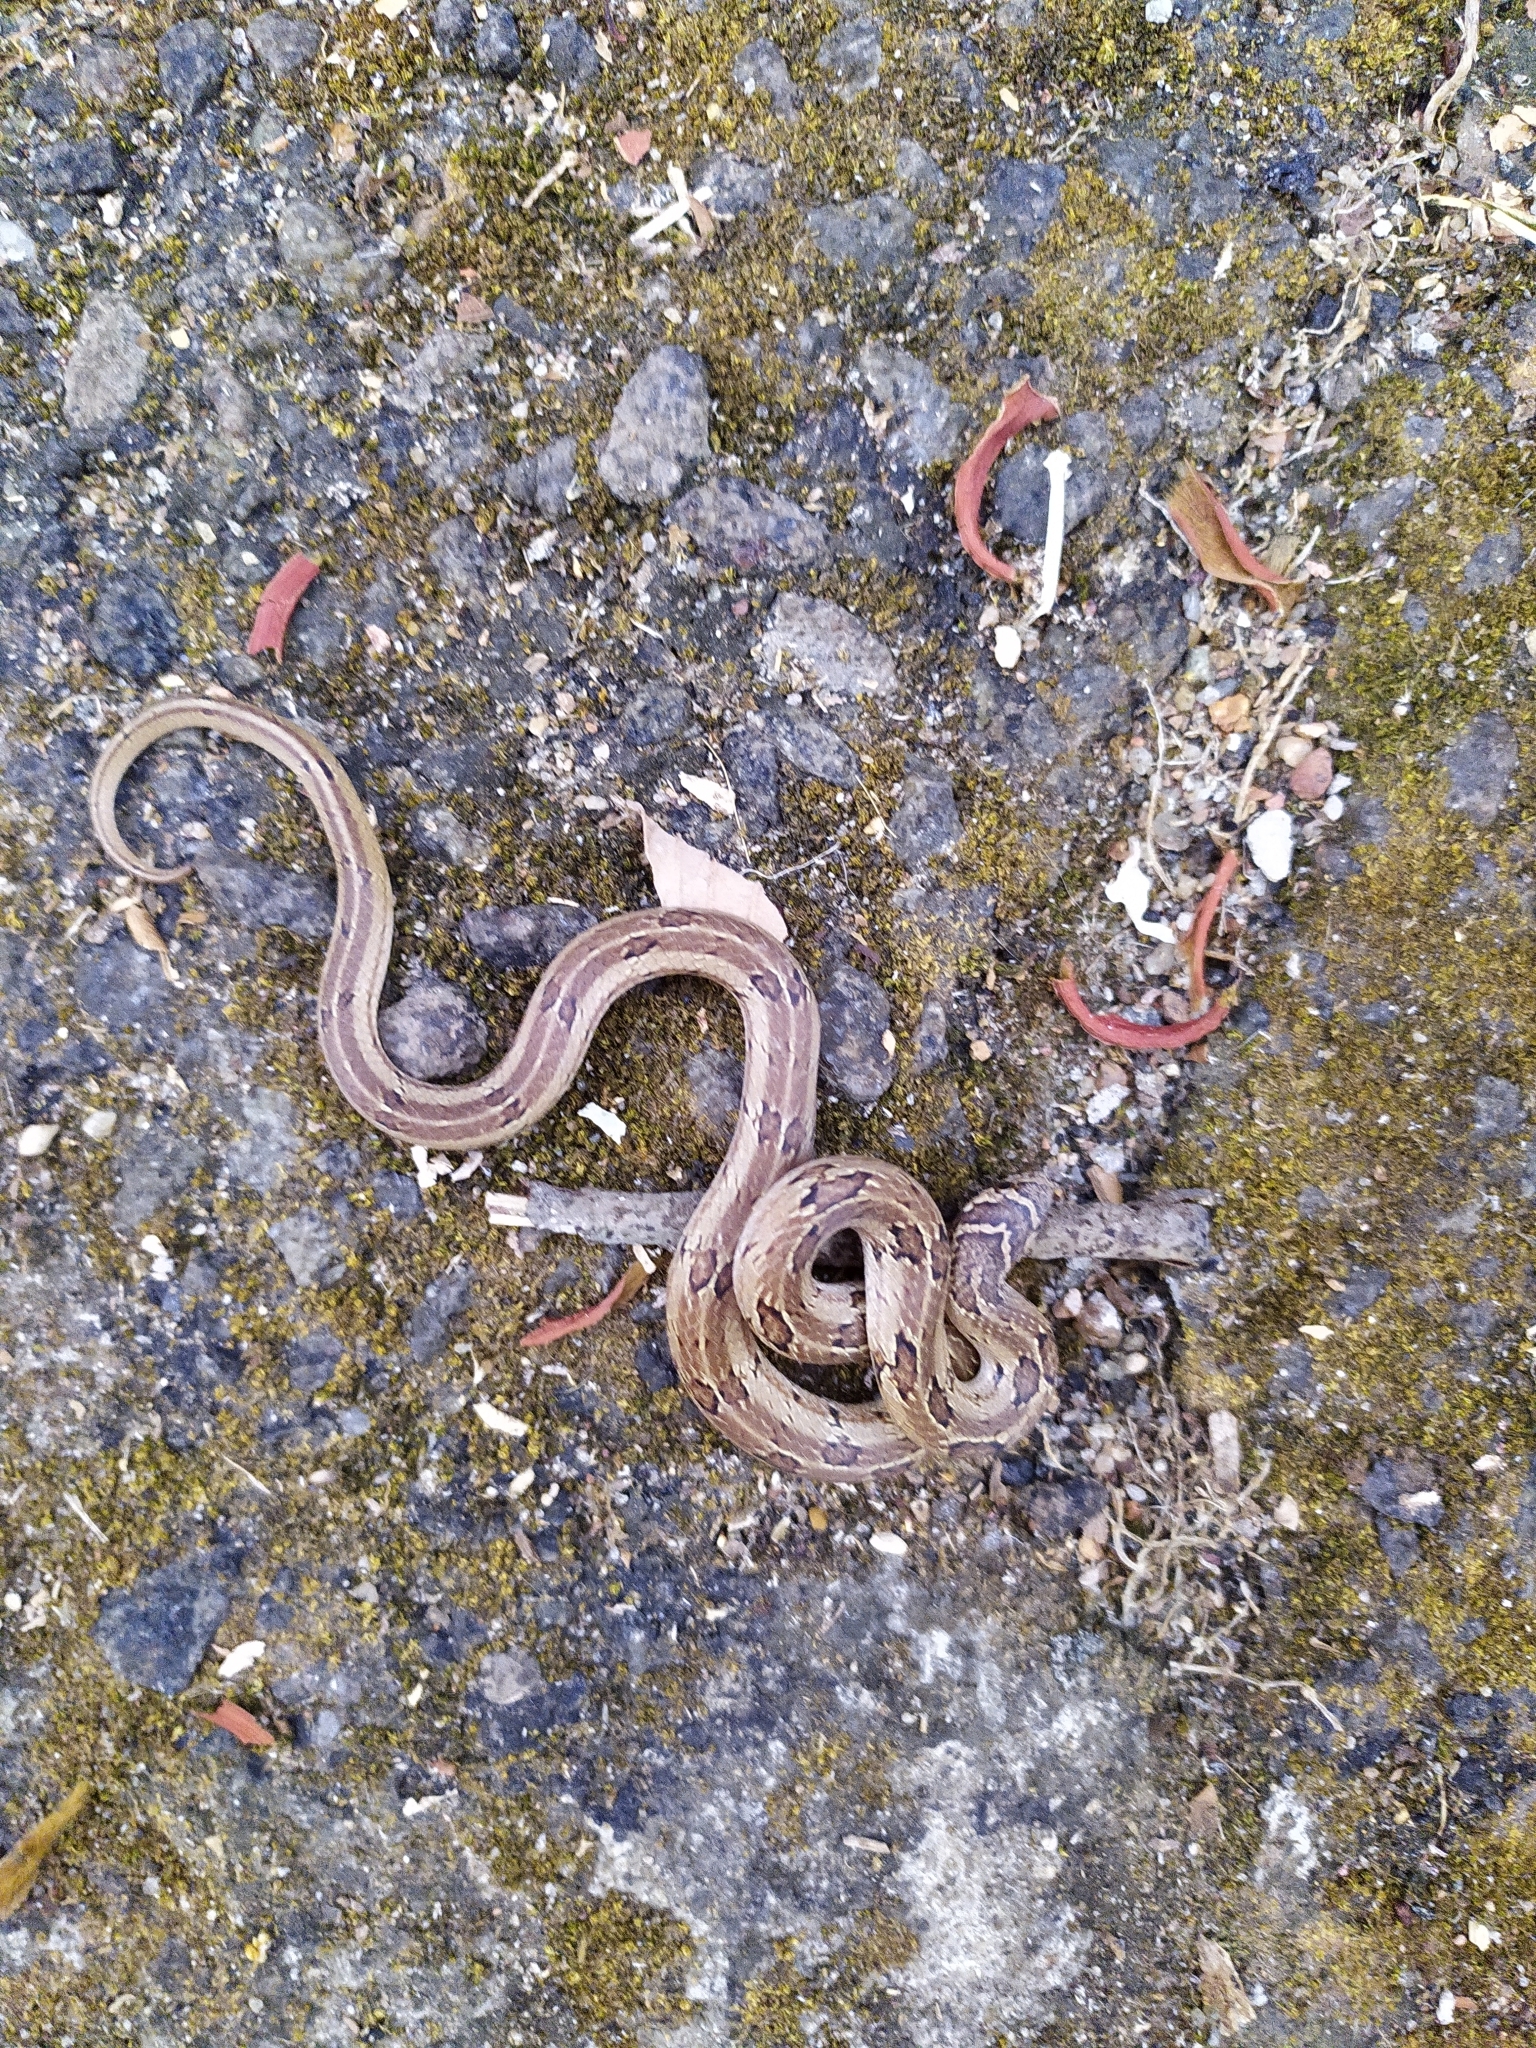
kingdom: Animalia
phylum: Chordata
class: Squamata
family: Colubridae
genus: Oligodon
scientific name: Oligodon taeniolatus
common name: Loos snake
